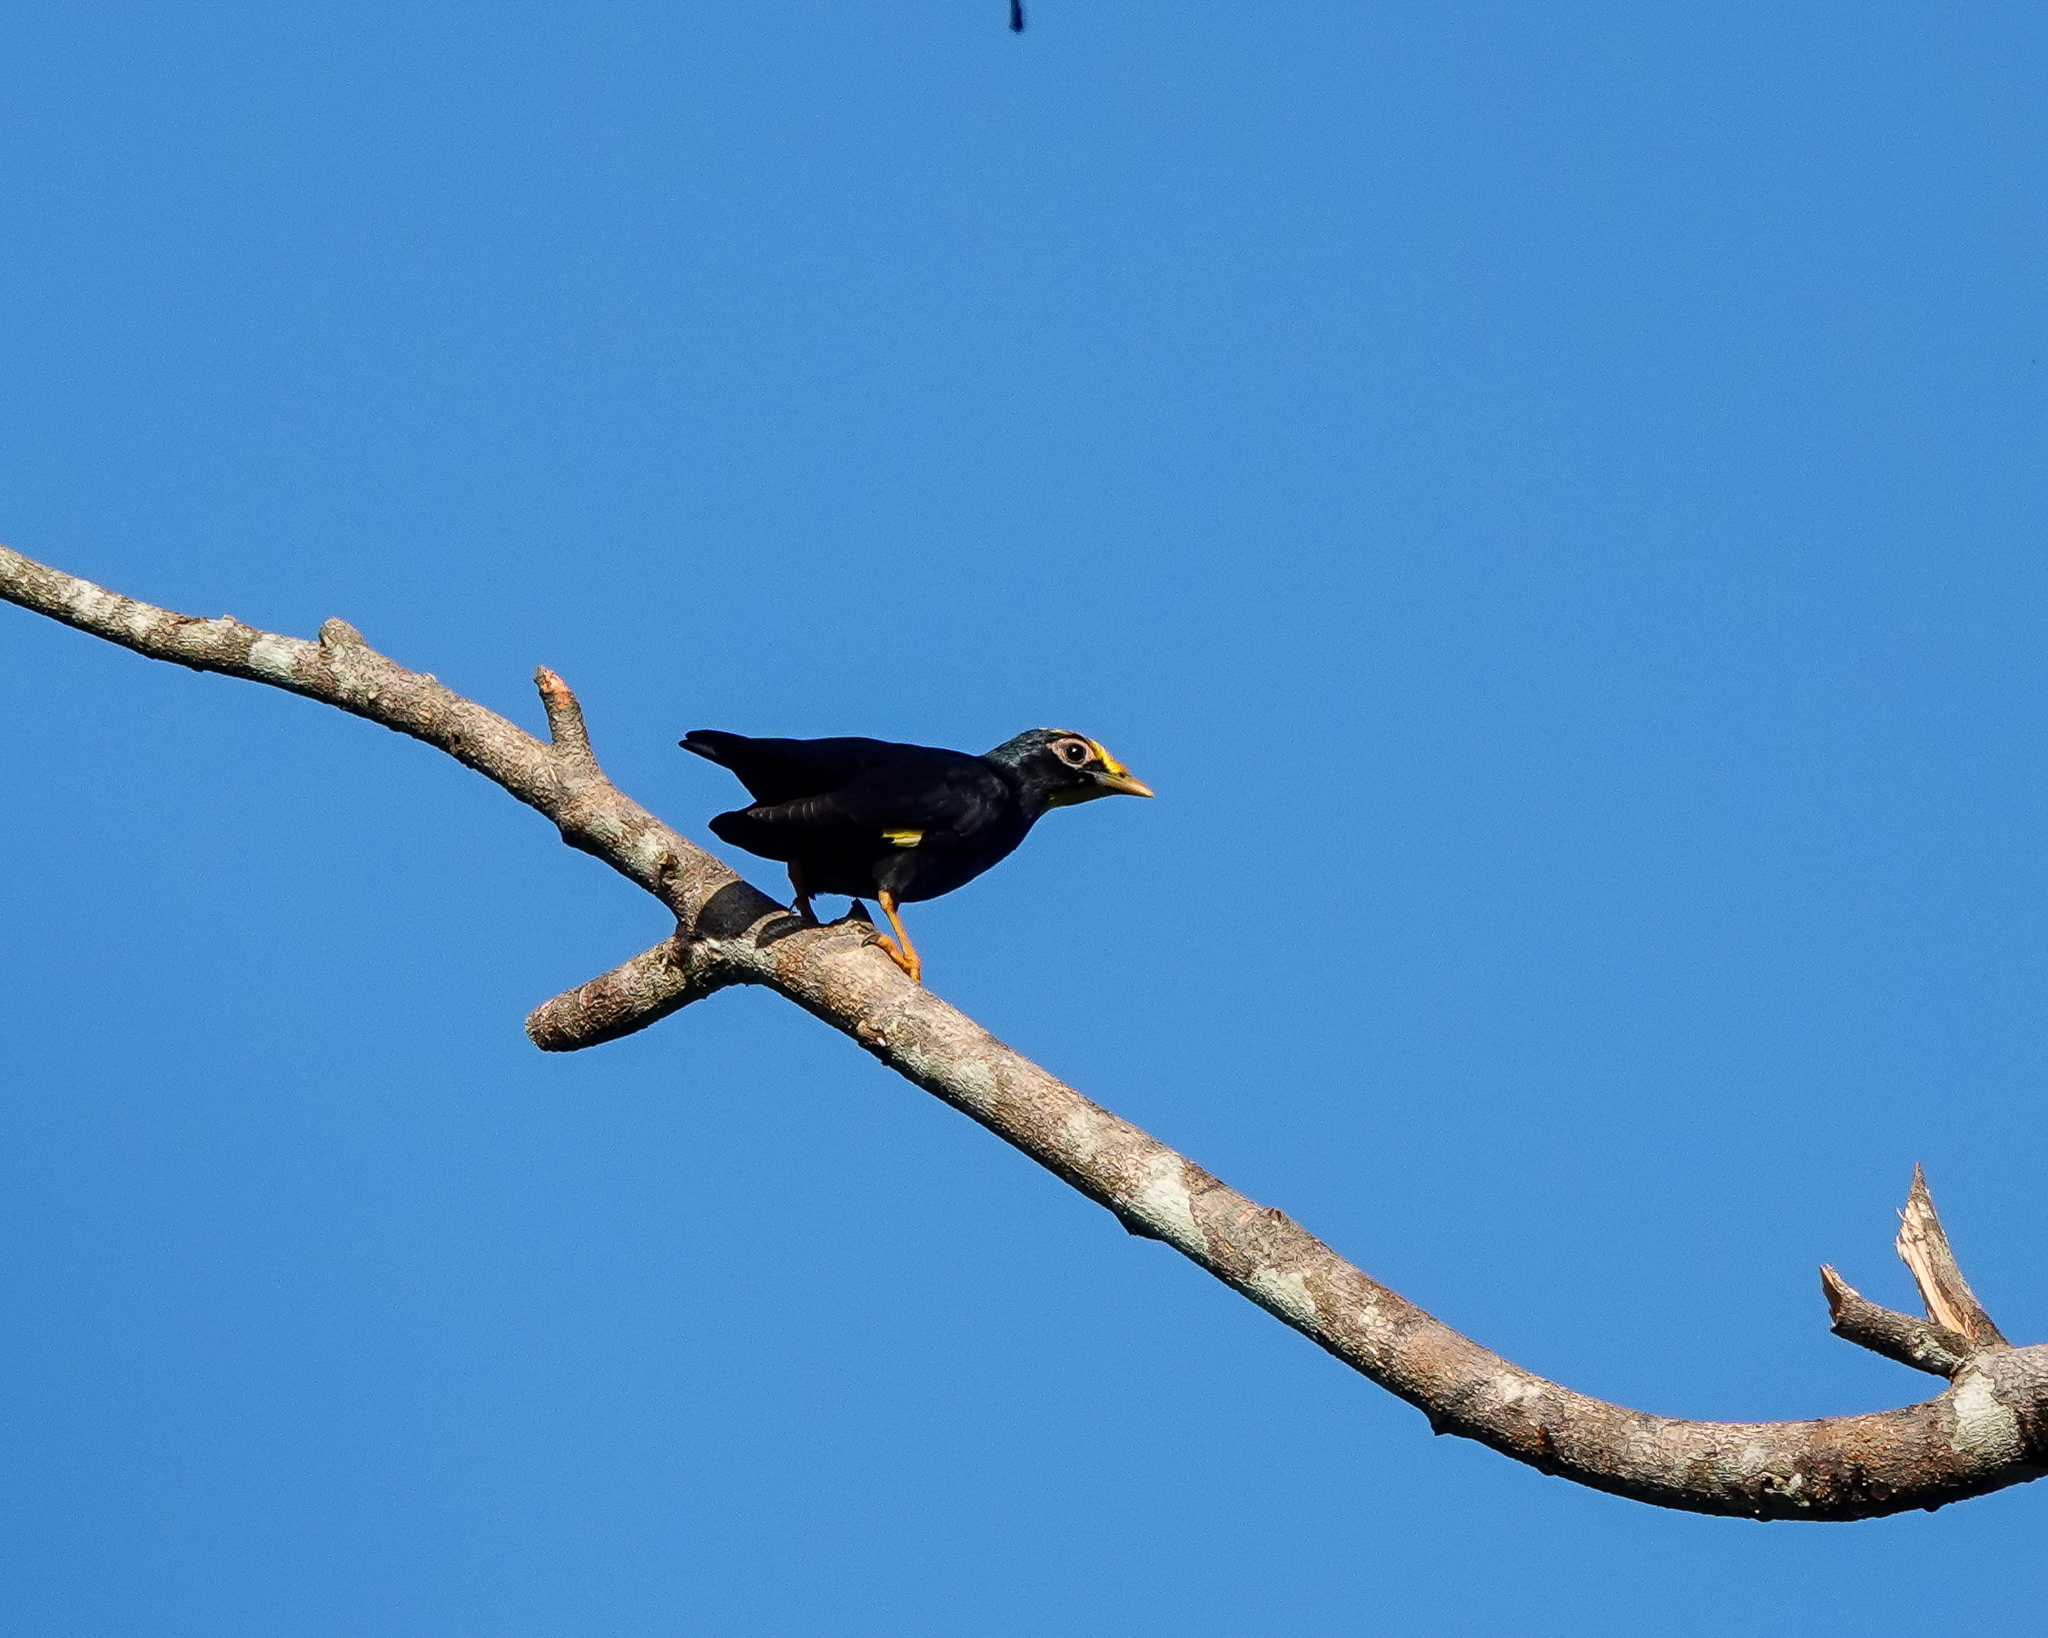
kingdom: Animalia
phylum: Chordata
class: Aves
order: Passeriformes
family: Sturnidae
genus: Ampeliceps
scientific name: Ampeliceps coronatus
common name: Golden-crested myna
